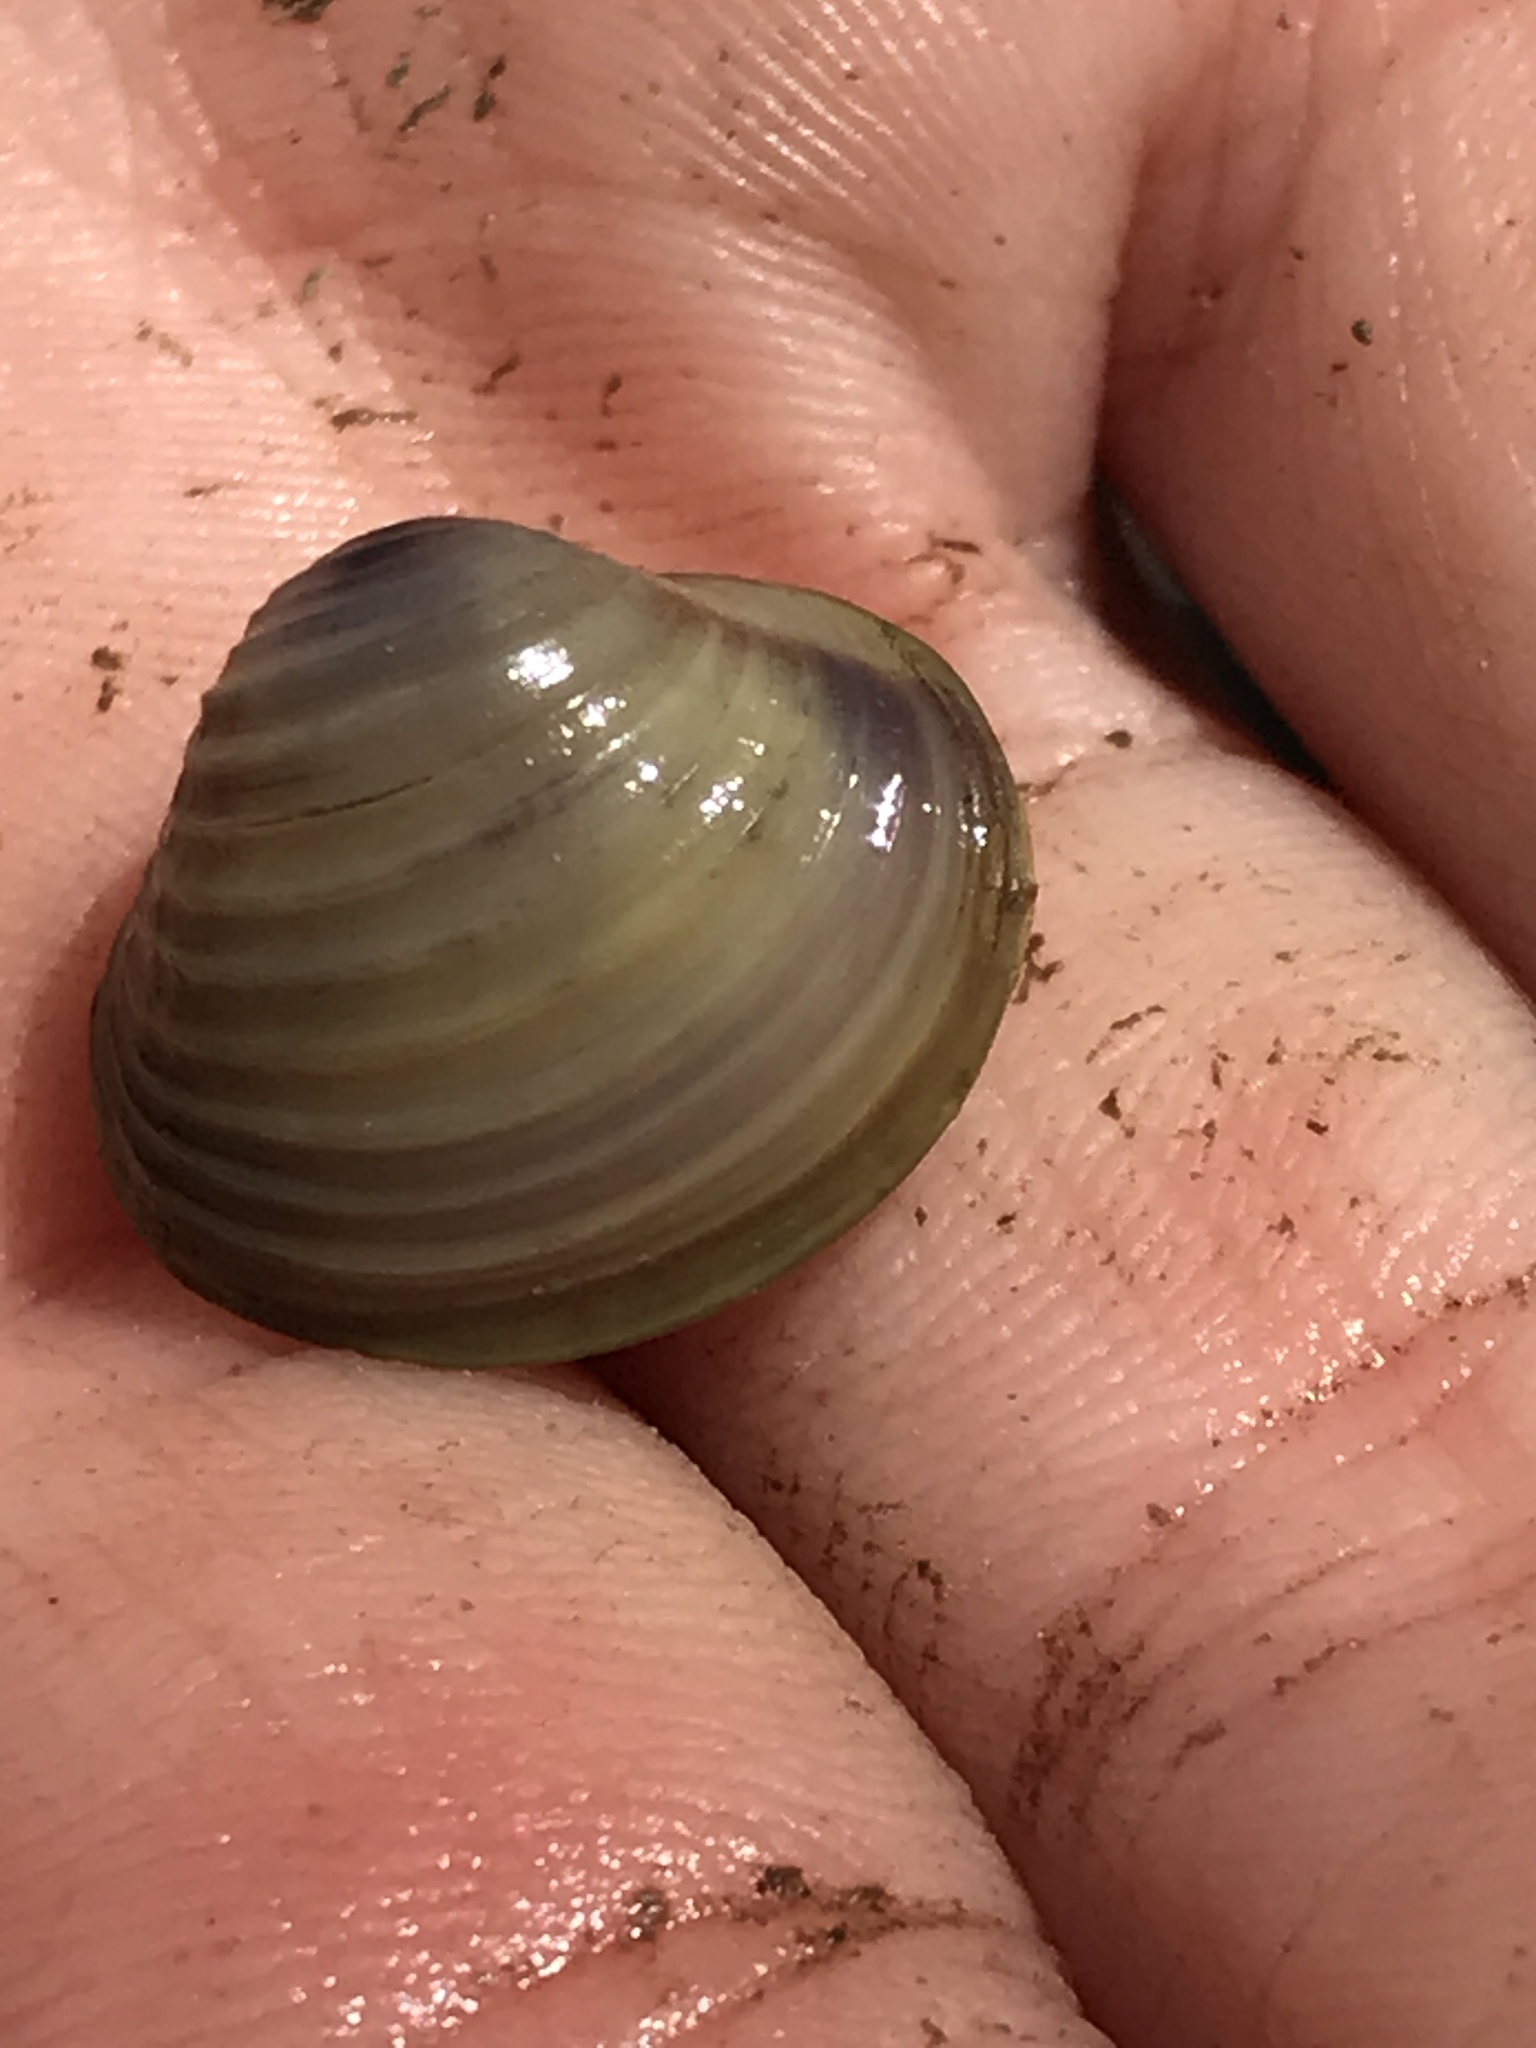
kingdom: Animalia
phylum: Mollusca
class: Bivalvia
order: Venerida
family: Cyrenidae
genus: Corbicula
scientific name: Corbicula fluminea
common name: Asian clam
